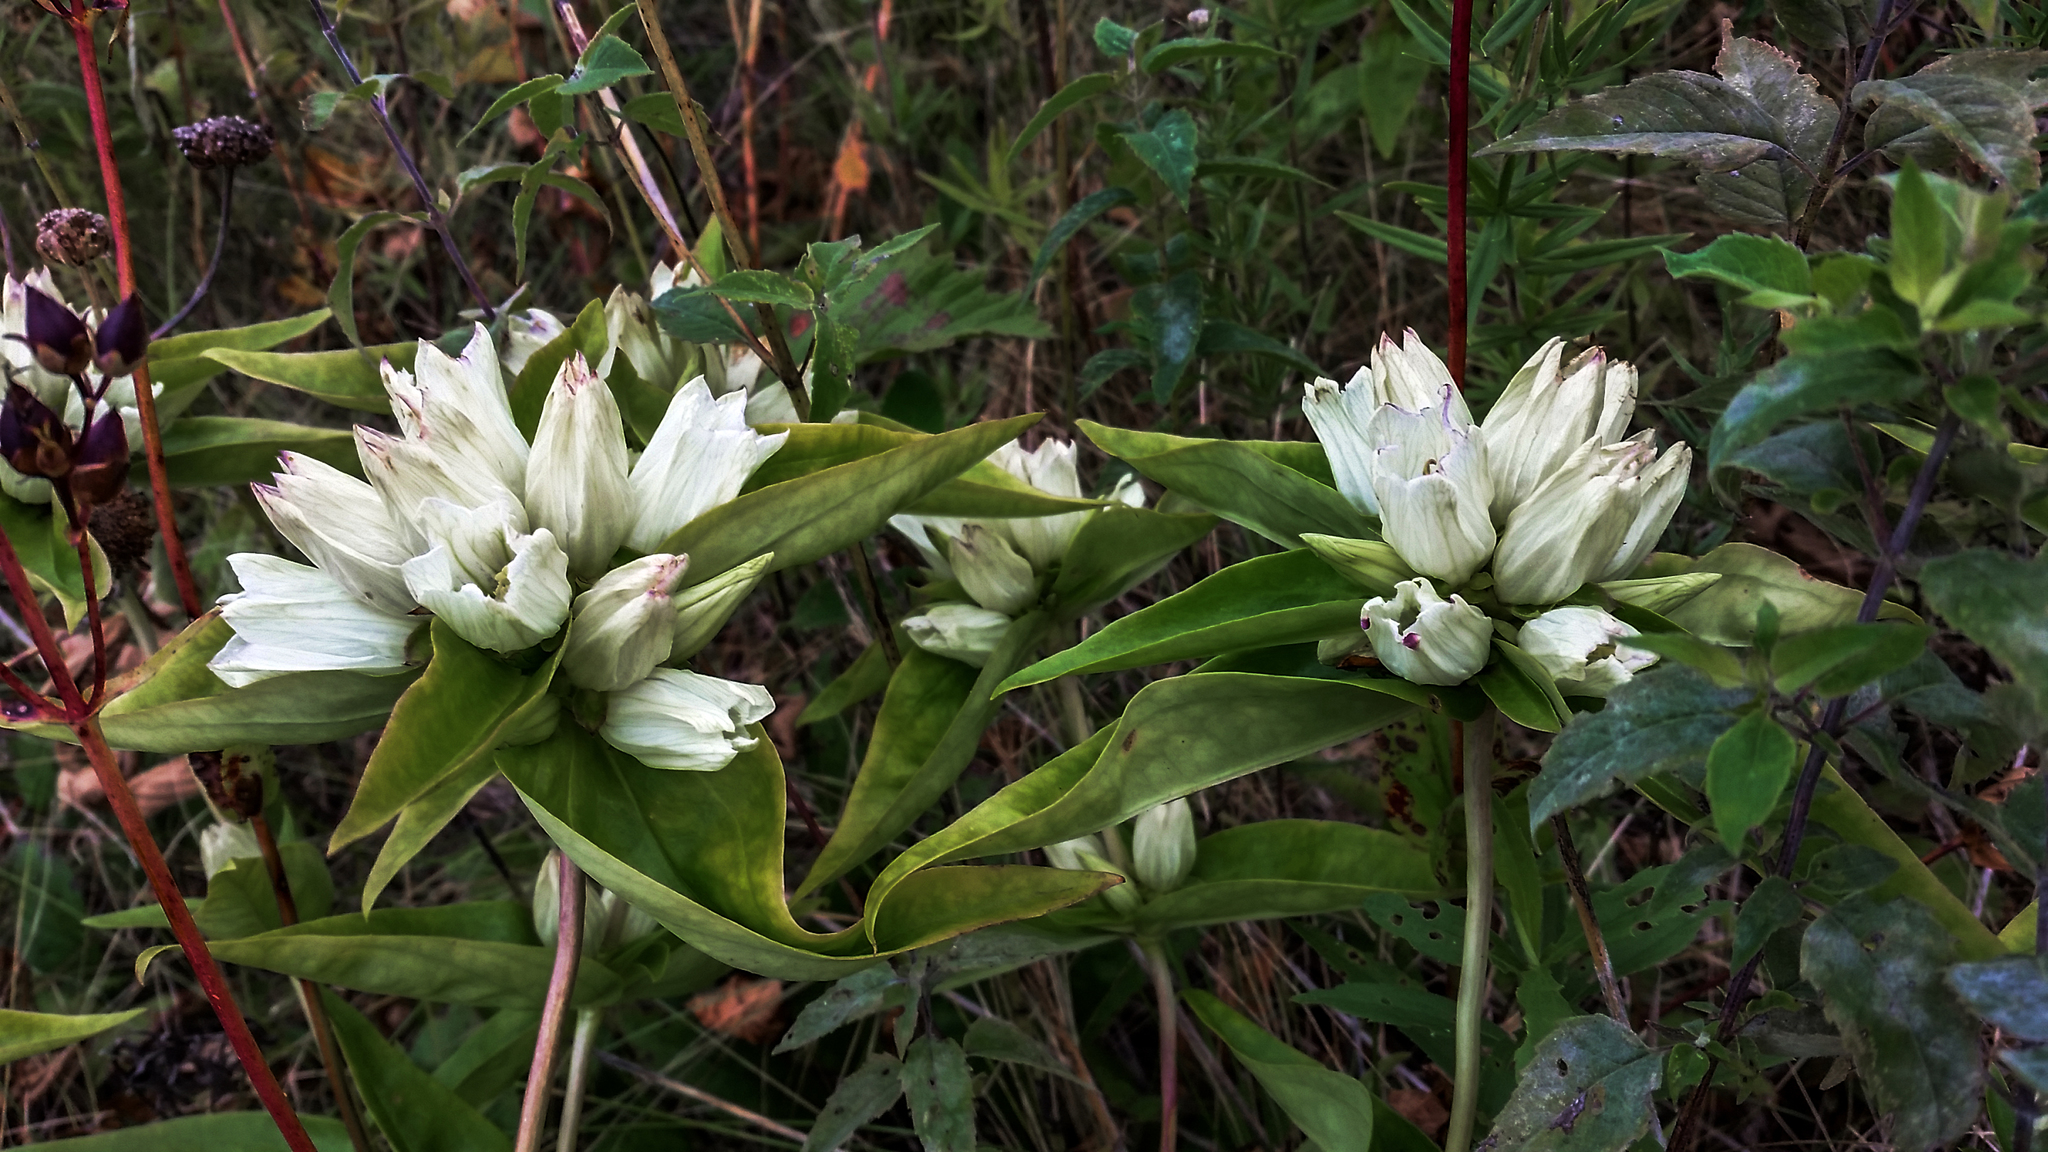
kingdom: Plantae
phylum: Tracheophyta
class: Magnoliopsida
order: Gentianales
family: Gentianaceae
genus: Gentiana
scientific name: Gentiana alba
